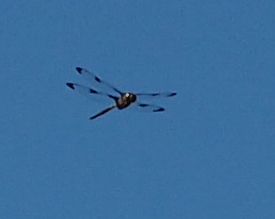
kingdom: Animalia
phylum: Arthropoda
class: Insecta
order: Odonata
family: Corduliidae
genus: Epitheca
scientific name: Epitheca princeps
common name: Prince baskettail
